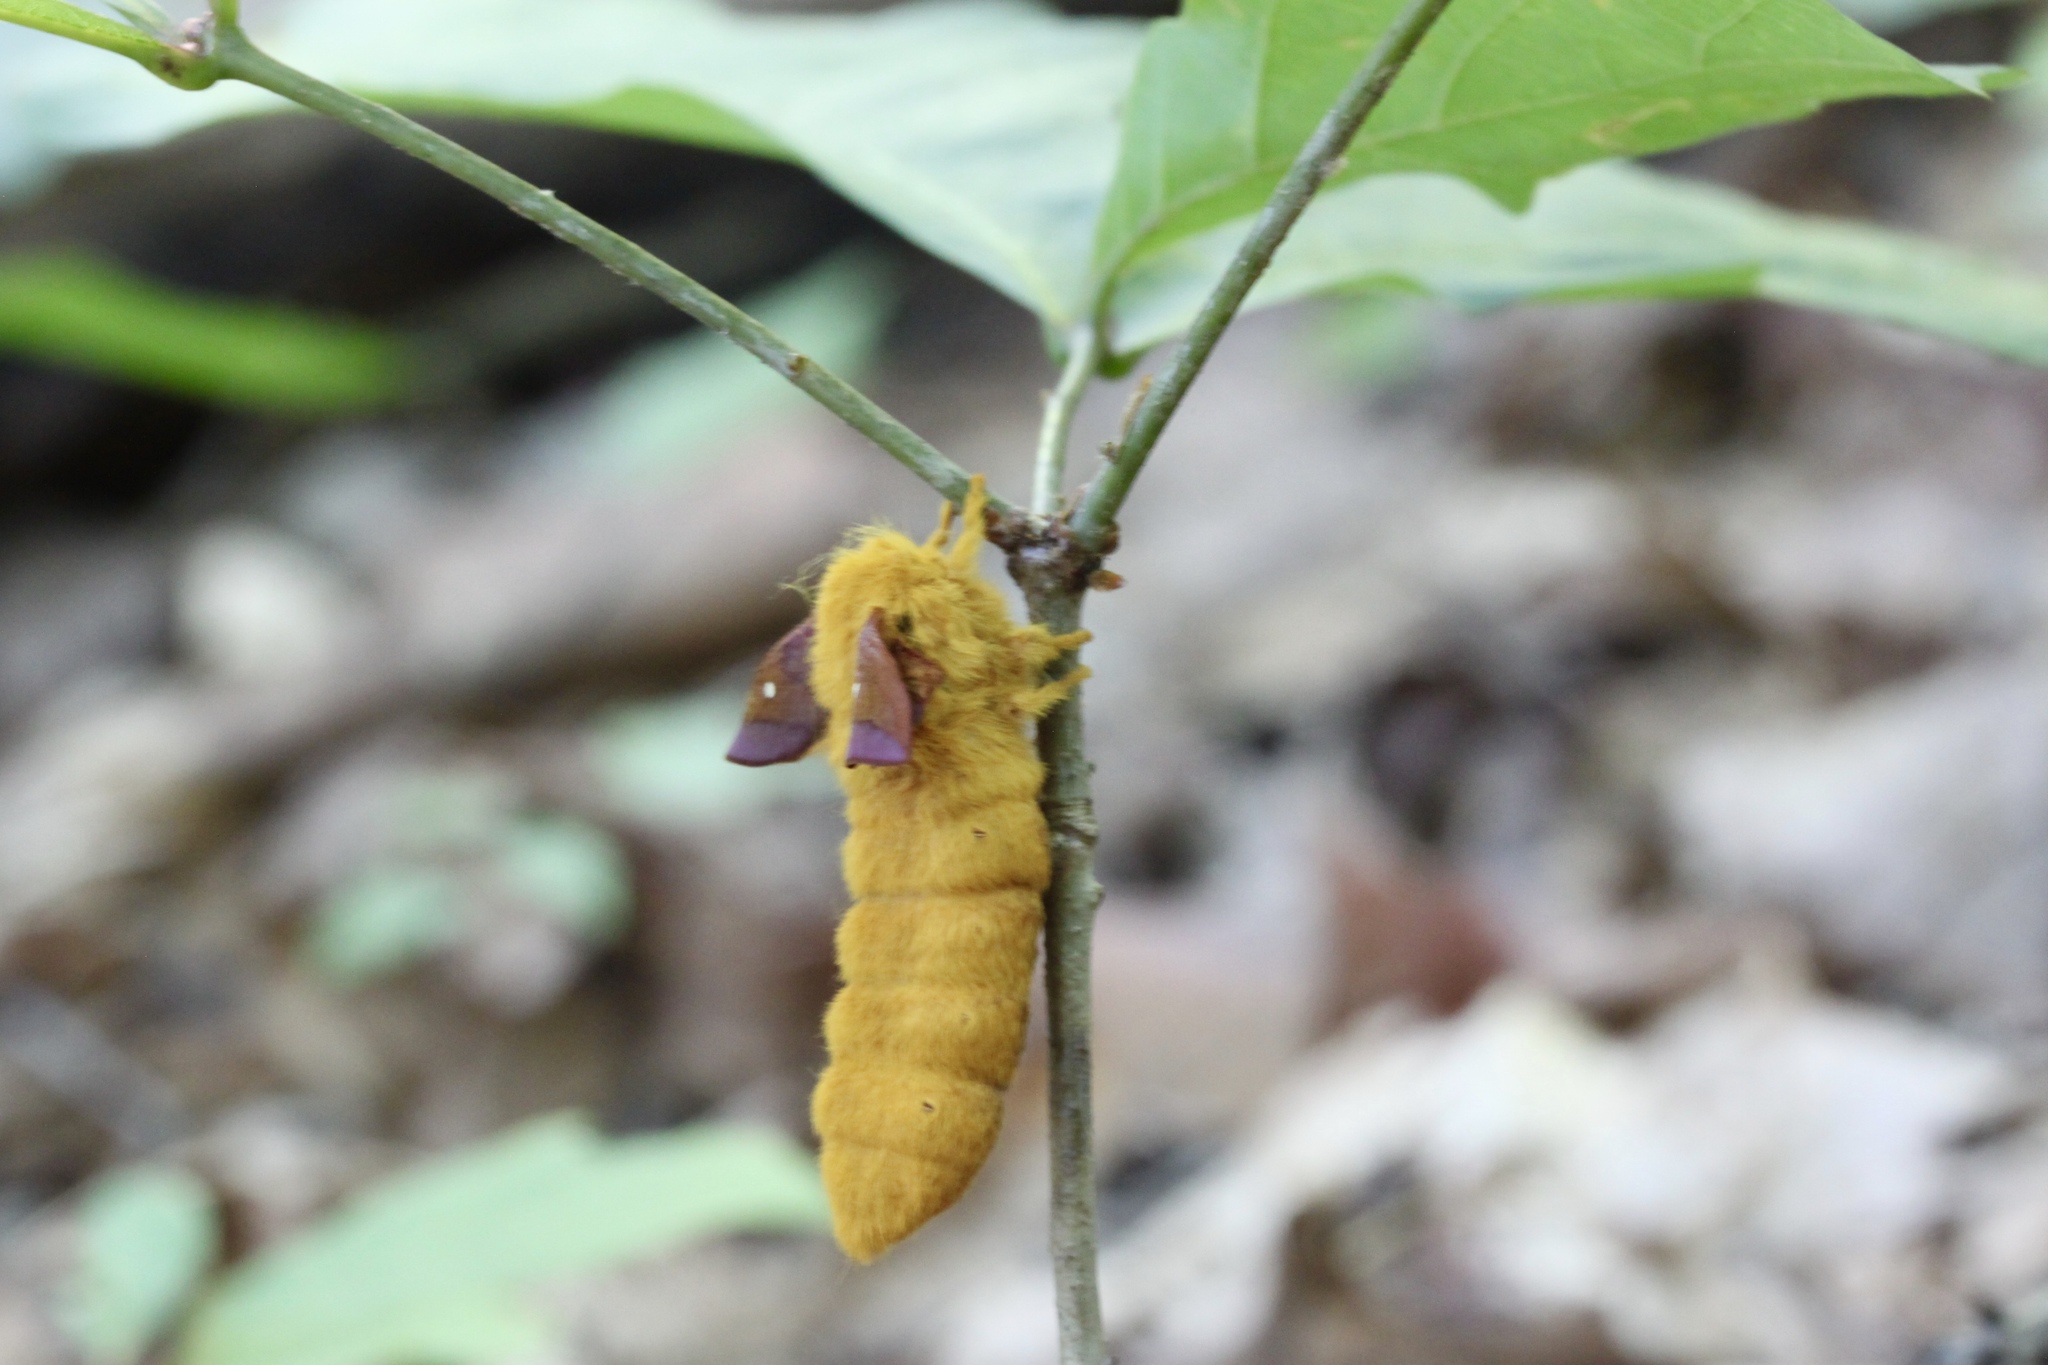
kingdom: Animalia
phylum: Arthropoda
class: Insecta
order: Lepidoptera
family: Saturniidae
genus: Anisota
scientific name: Anisota virginiensis
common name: Pink striped oakworm moth
